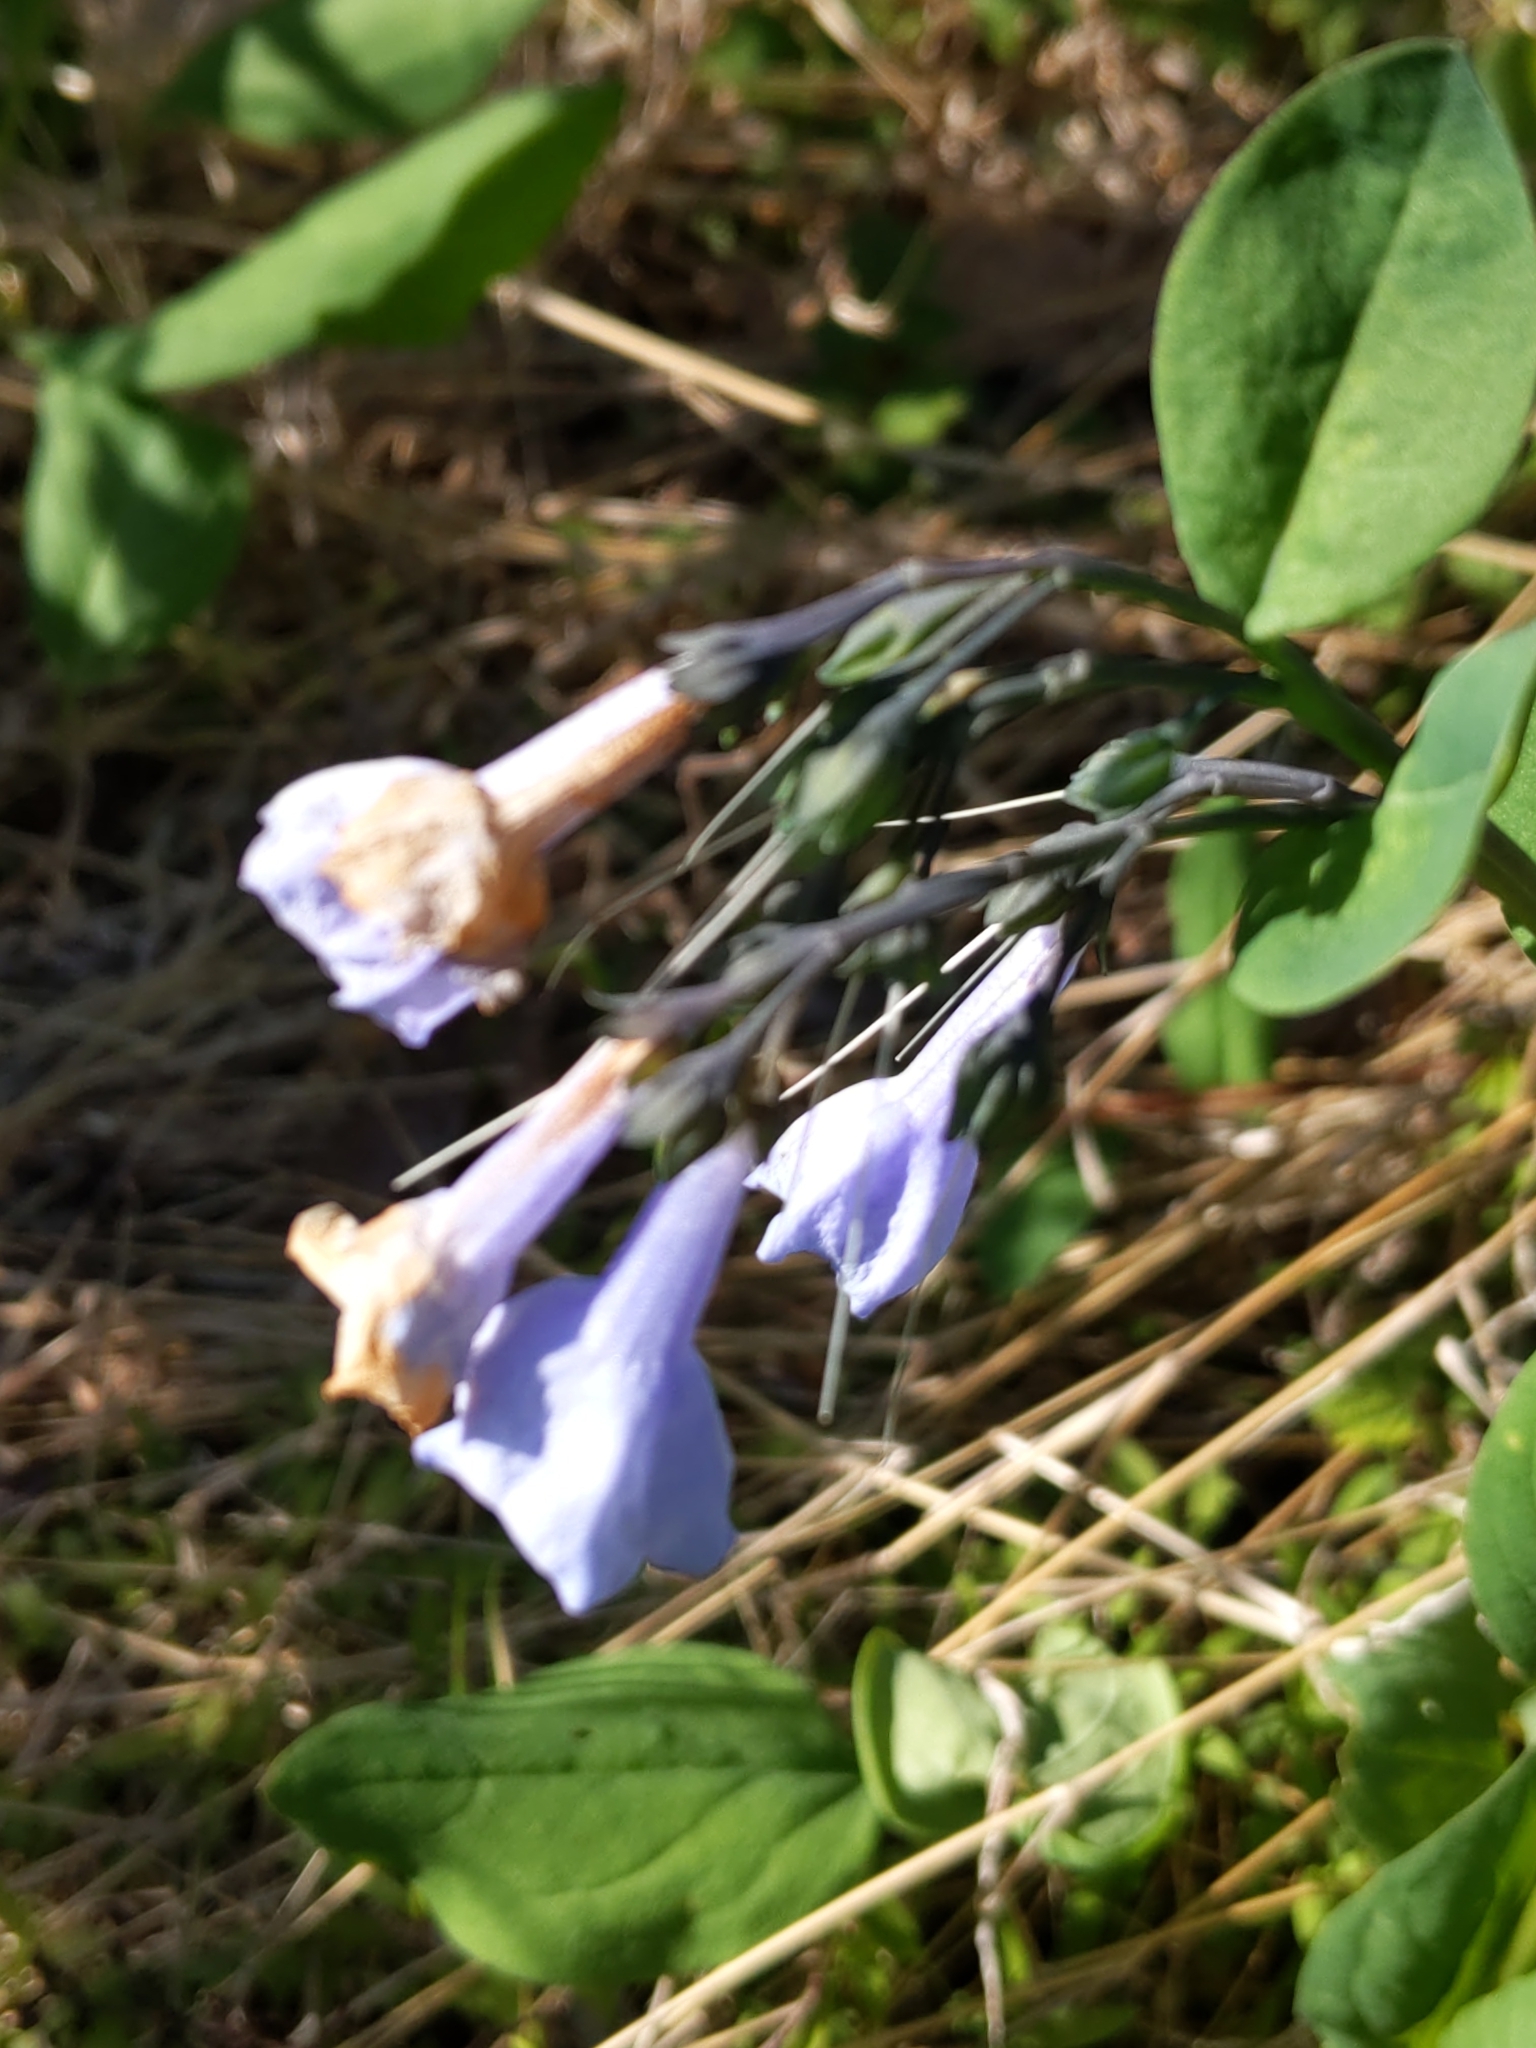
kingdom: Plantae
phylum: Tracheophyta
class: Magnoliopsida
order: Boraginales
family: Boraginaceae
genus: Mertensia
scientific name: Mertensia virginica
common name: Virginia bluebells
